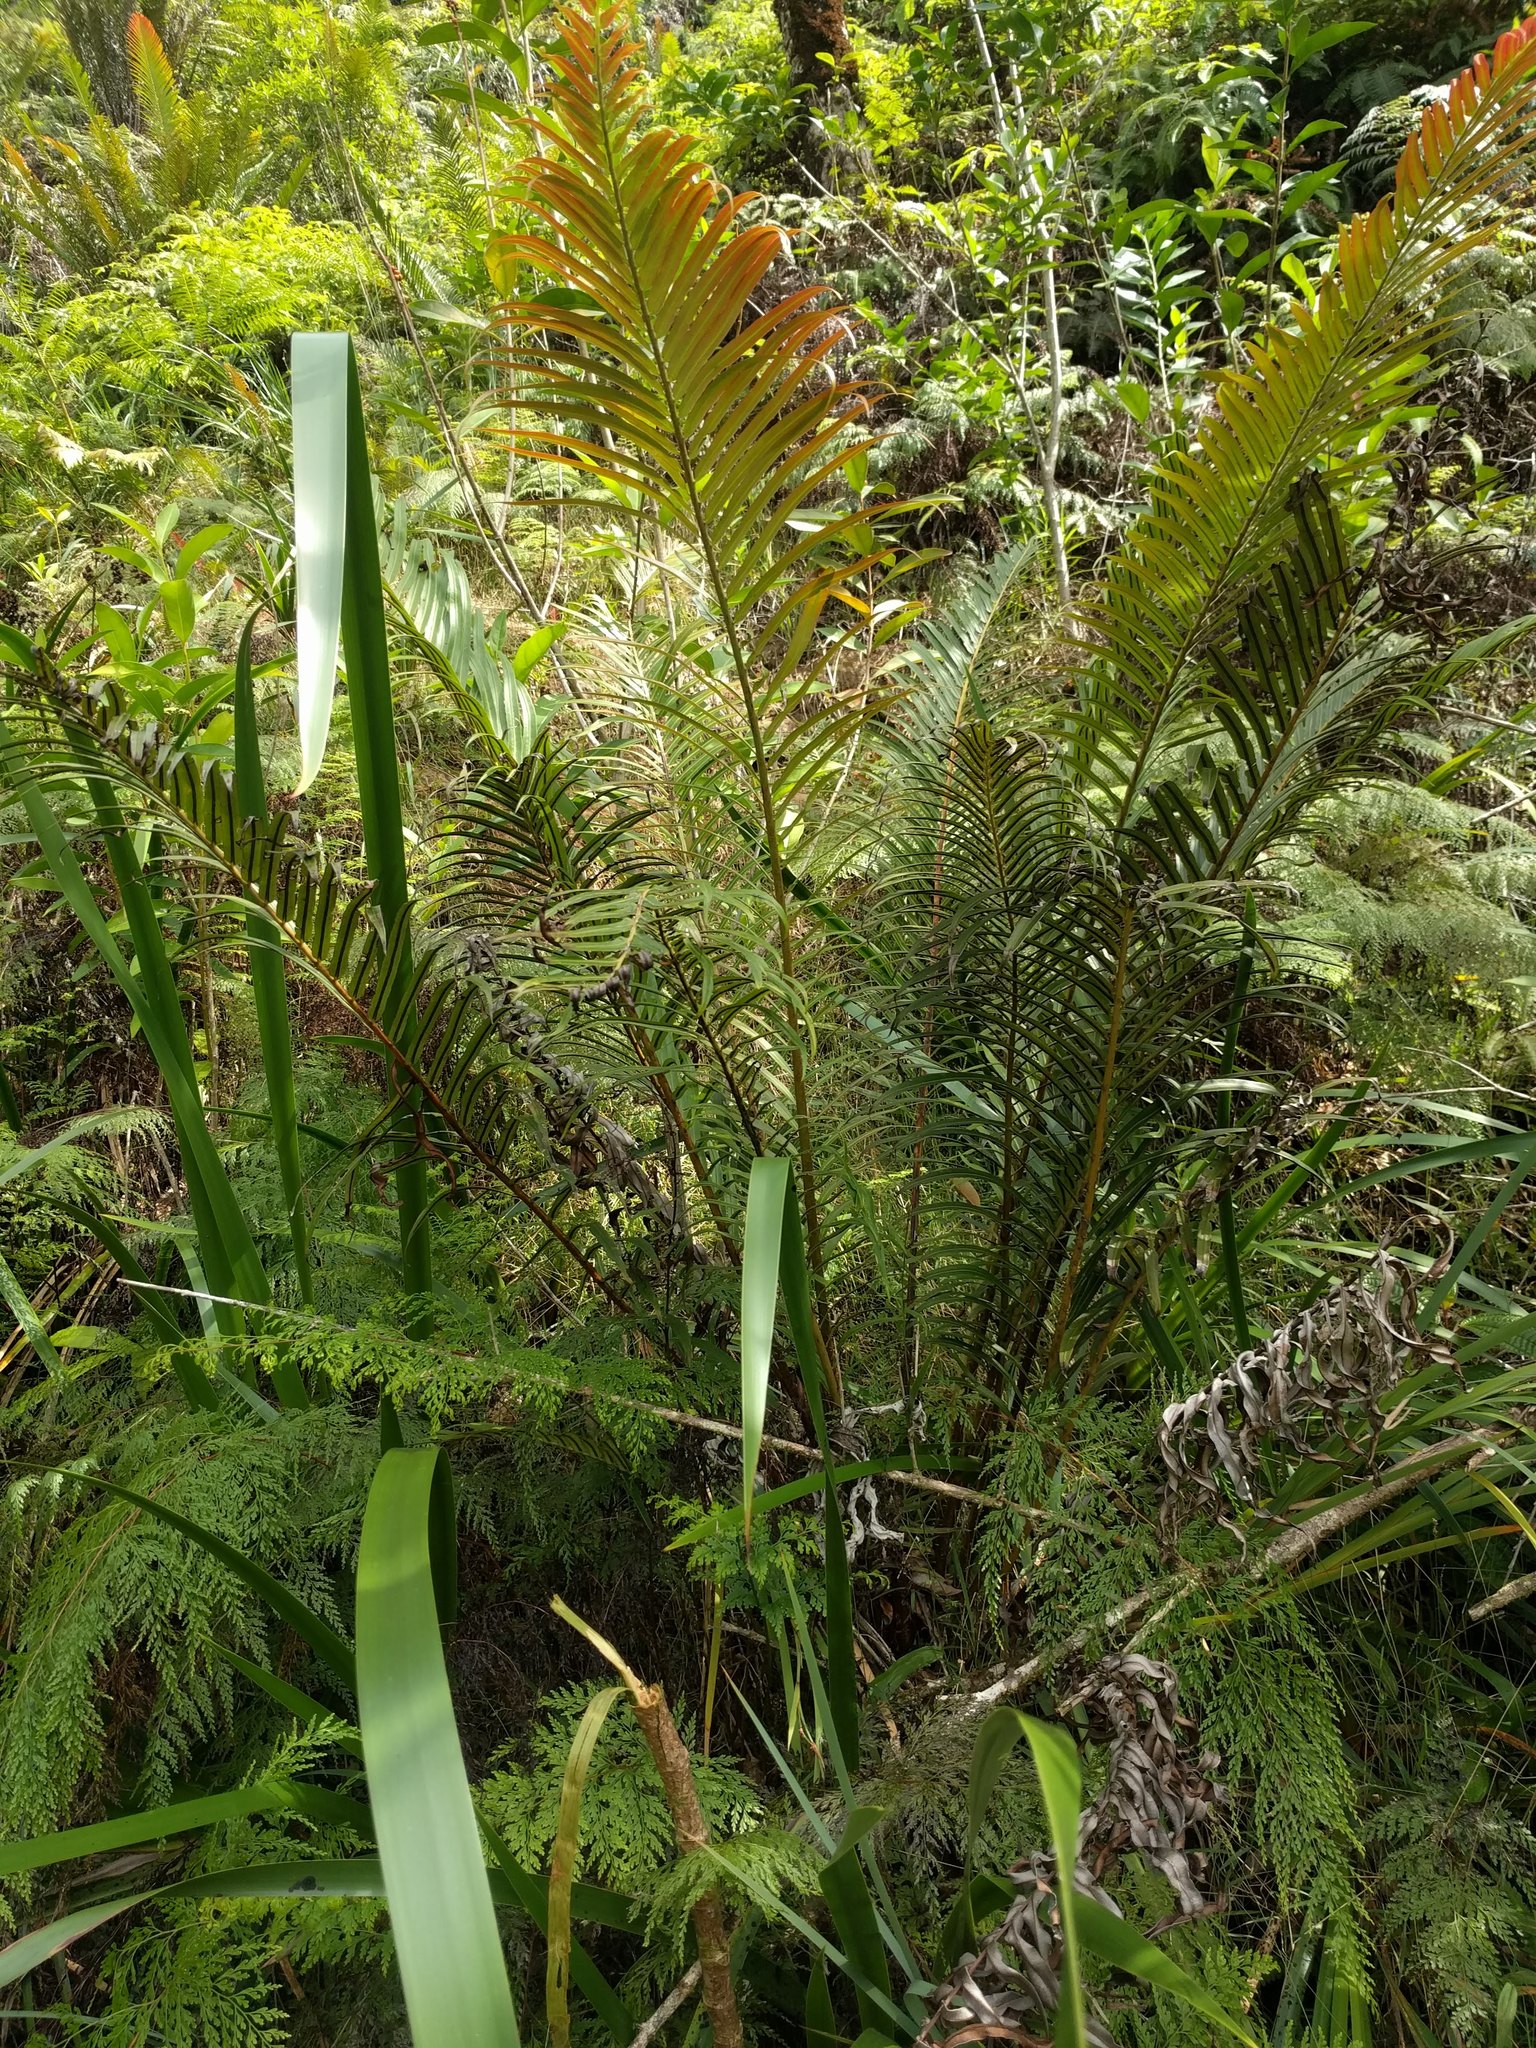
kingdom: Plantae
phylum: Tracheophyta
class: Polypodiopsida
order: Polypodiales
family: Blechnaceae
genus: Blechnopsis
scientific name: Blechnopsis orientalis
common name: Oriental blechnum
